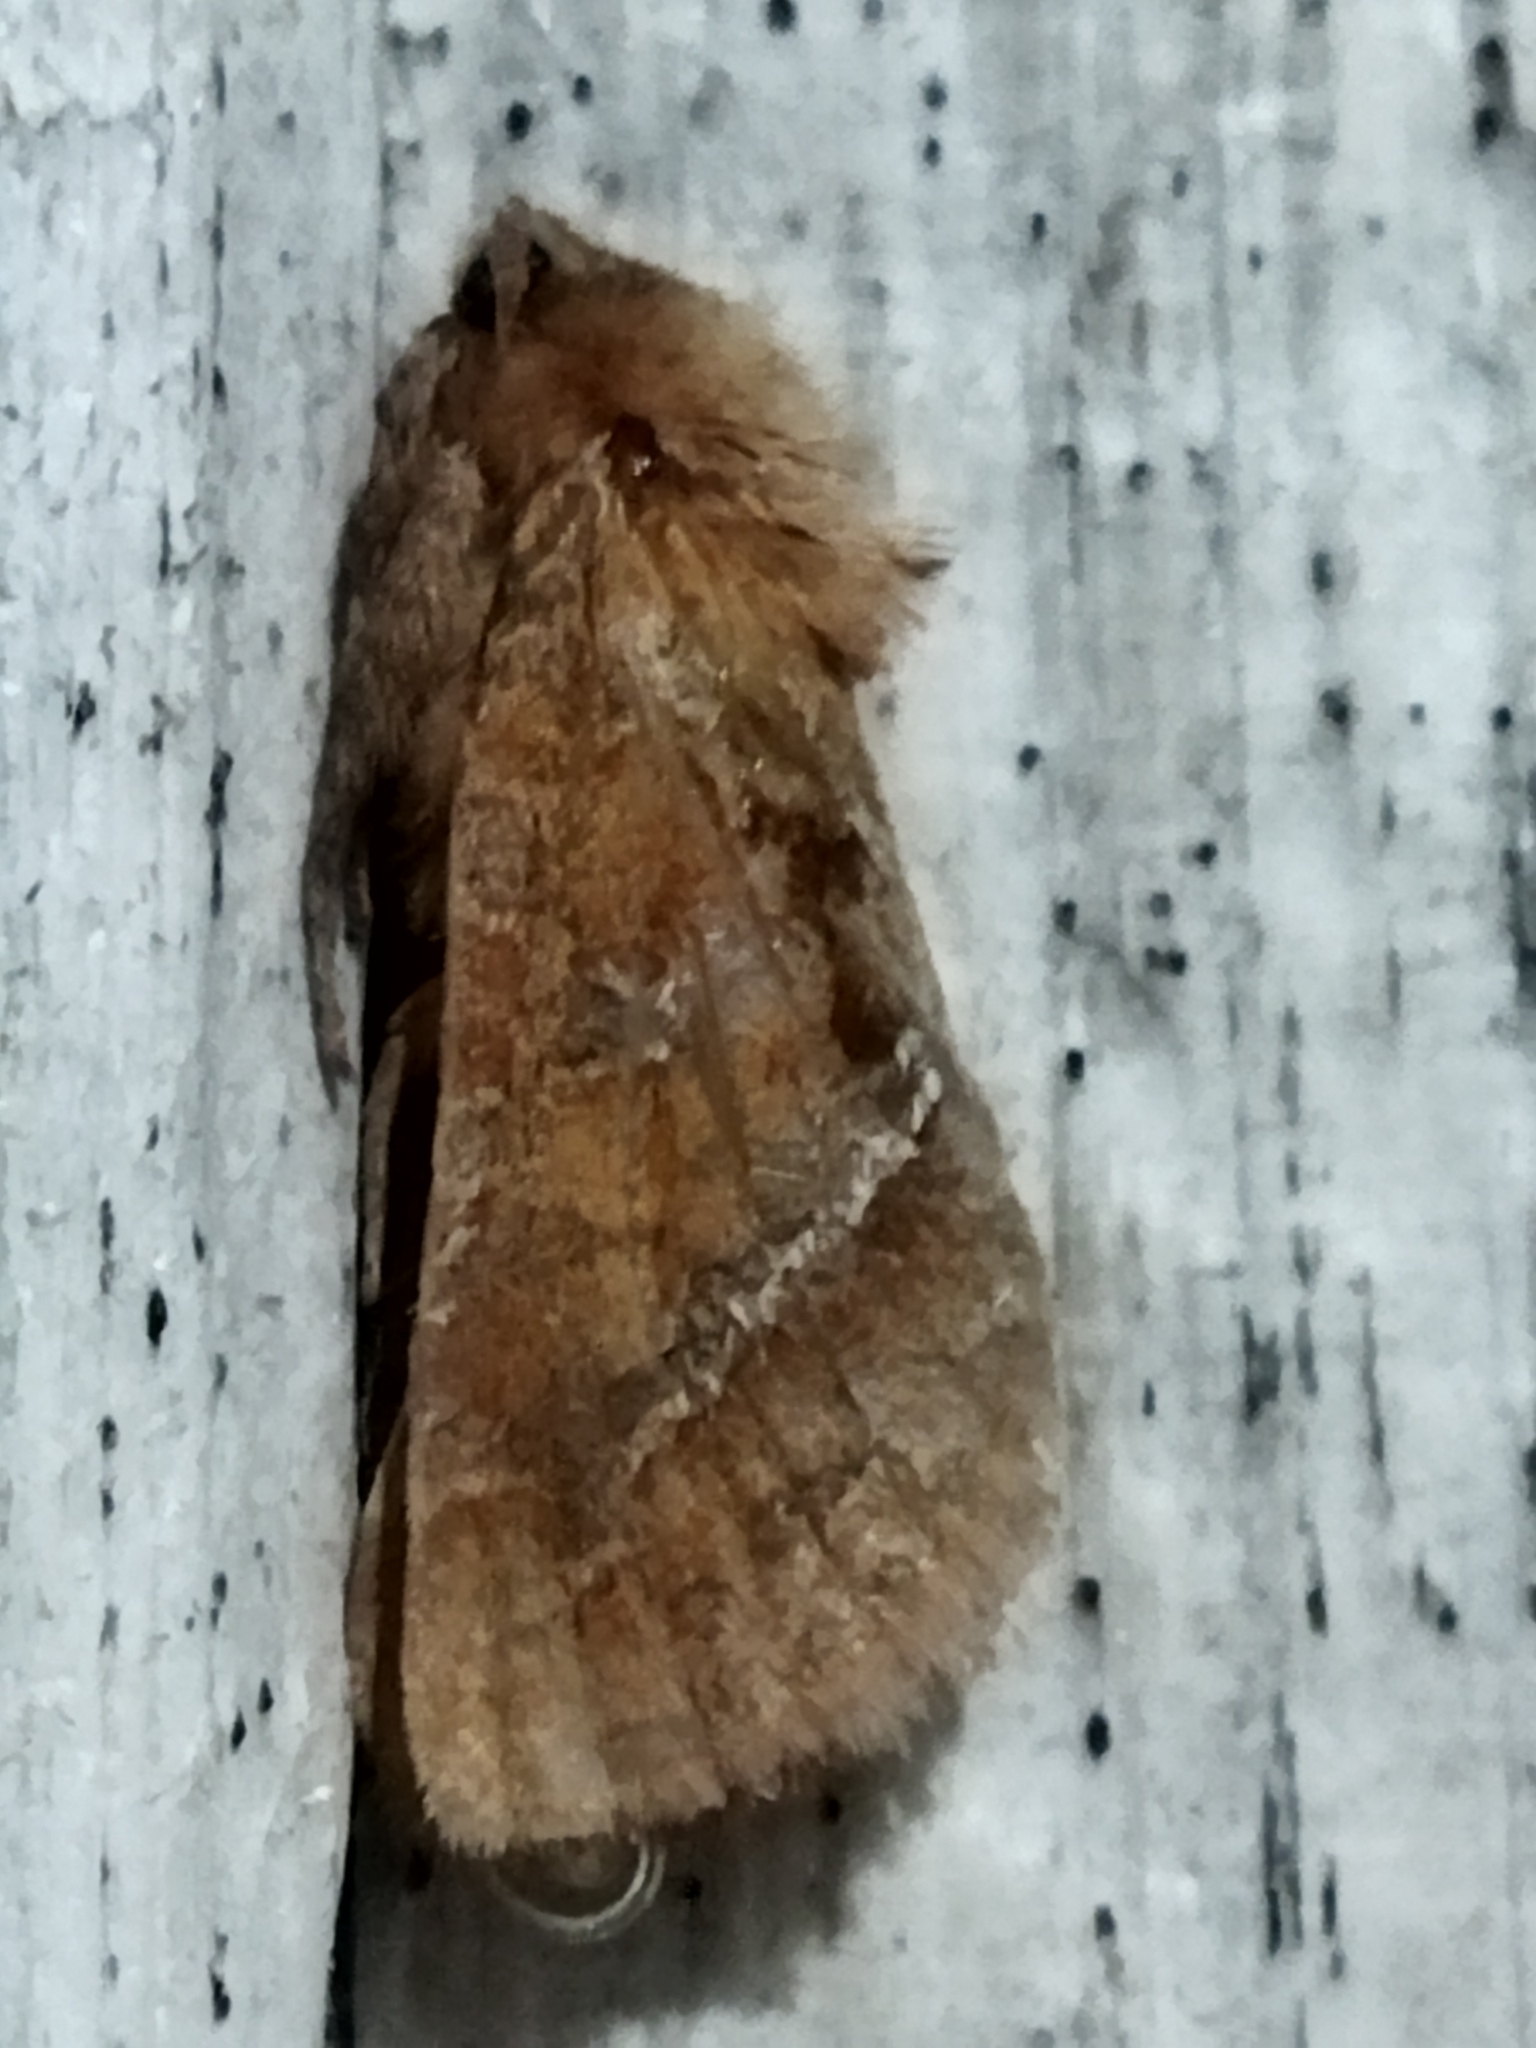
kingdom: Animalia
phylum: Arthropoda
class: Insecta
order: Lepidoptera
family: Hepialidae
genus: Triodia
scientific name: Triodia sylvina
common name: Orange swift
